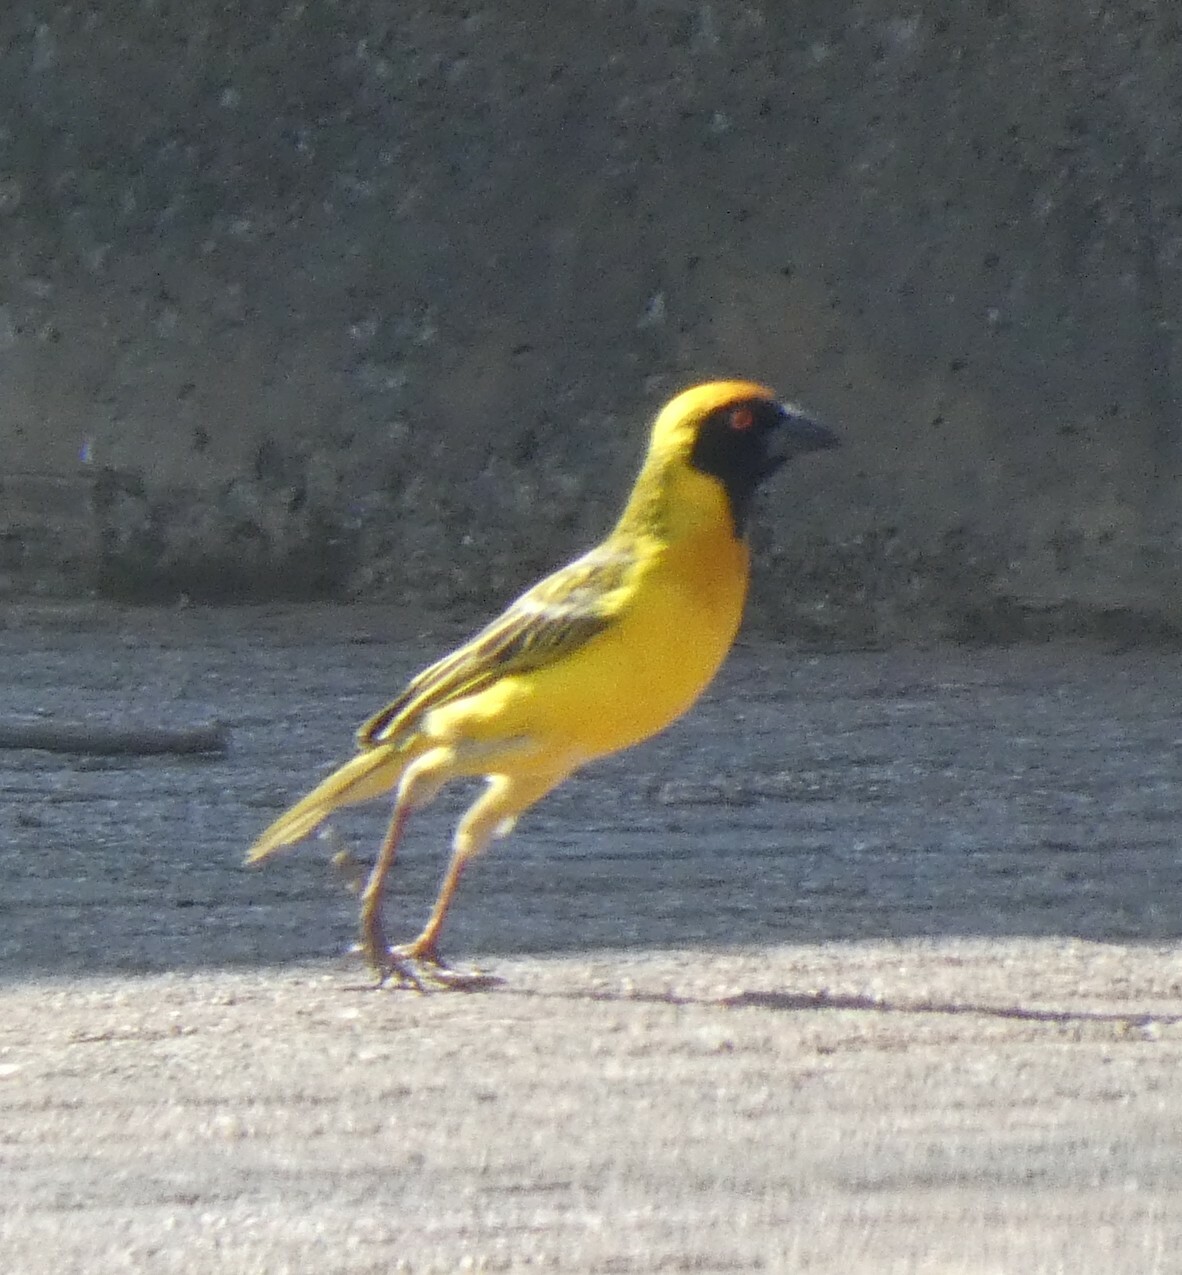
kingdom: Animalia
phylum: Chordata
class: Aves
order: Passeriformes
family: Ploceidae
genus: Ploceus
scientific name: Ploceus velatus
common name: Southern masked weaver
